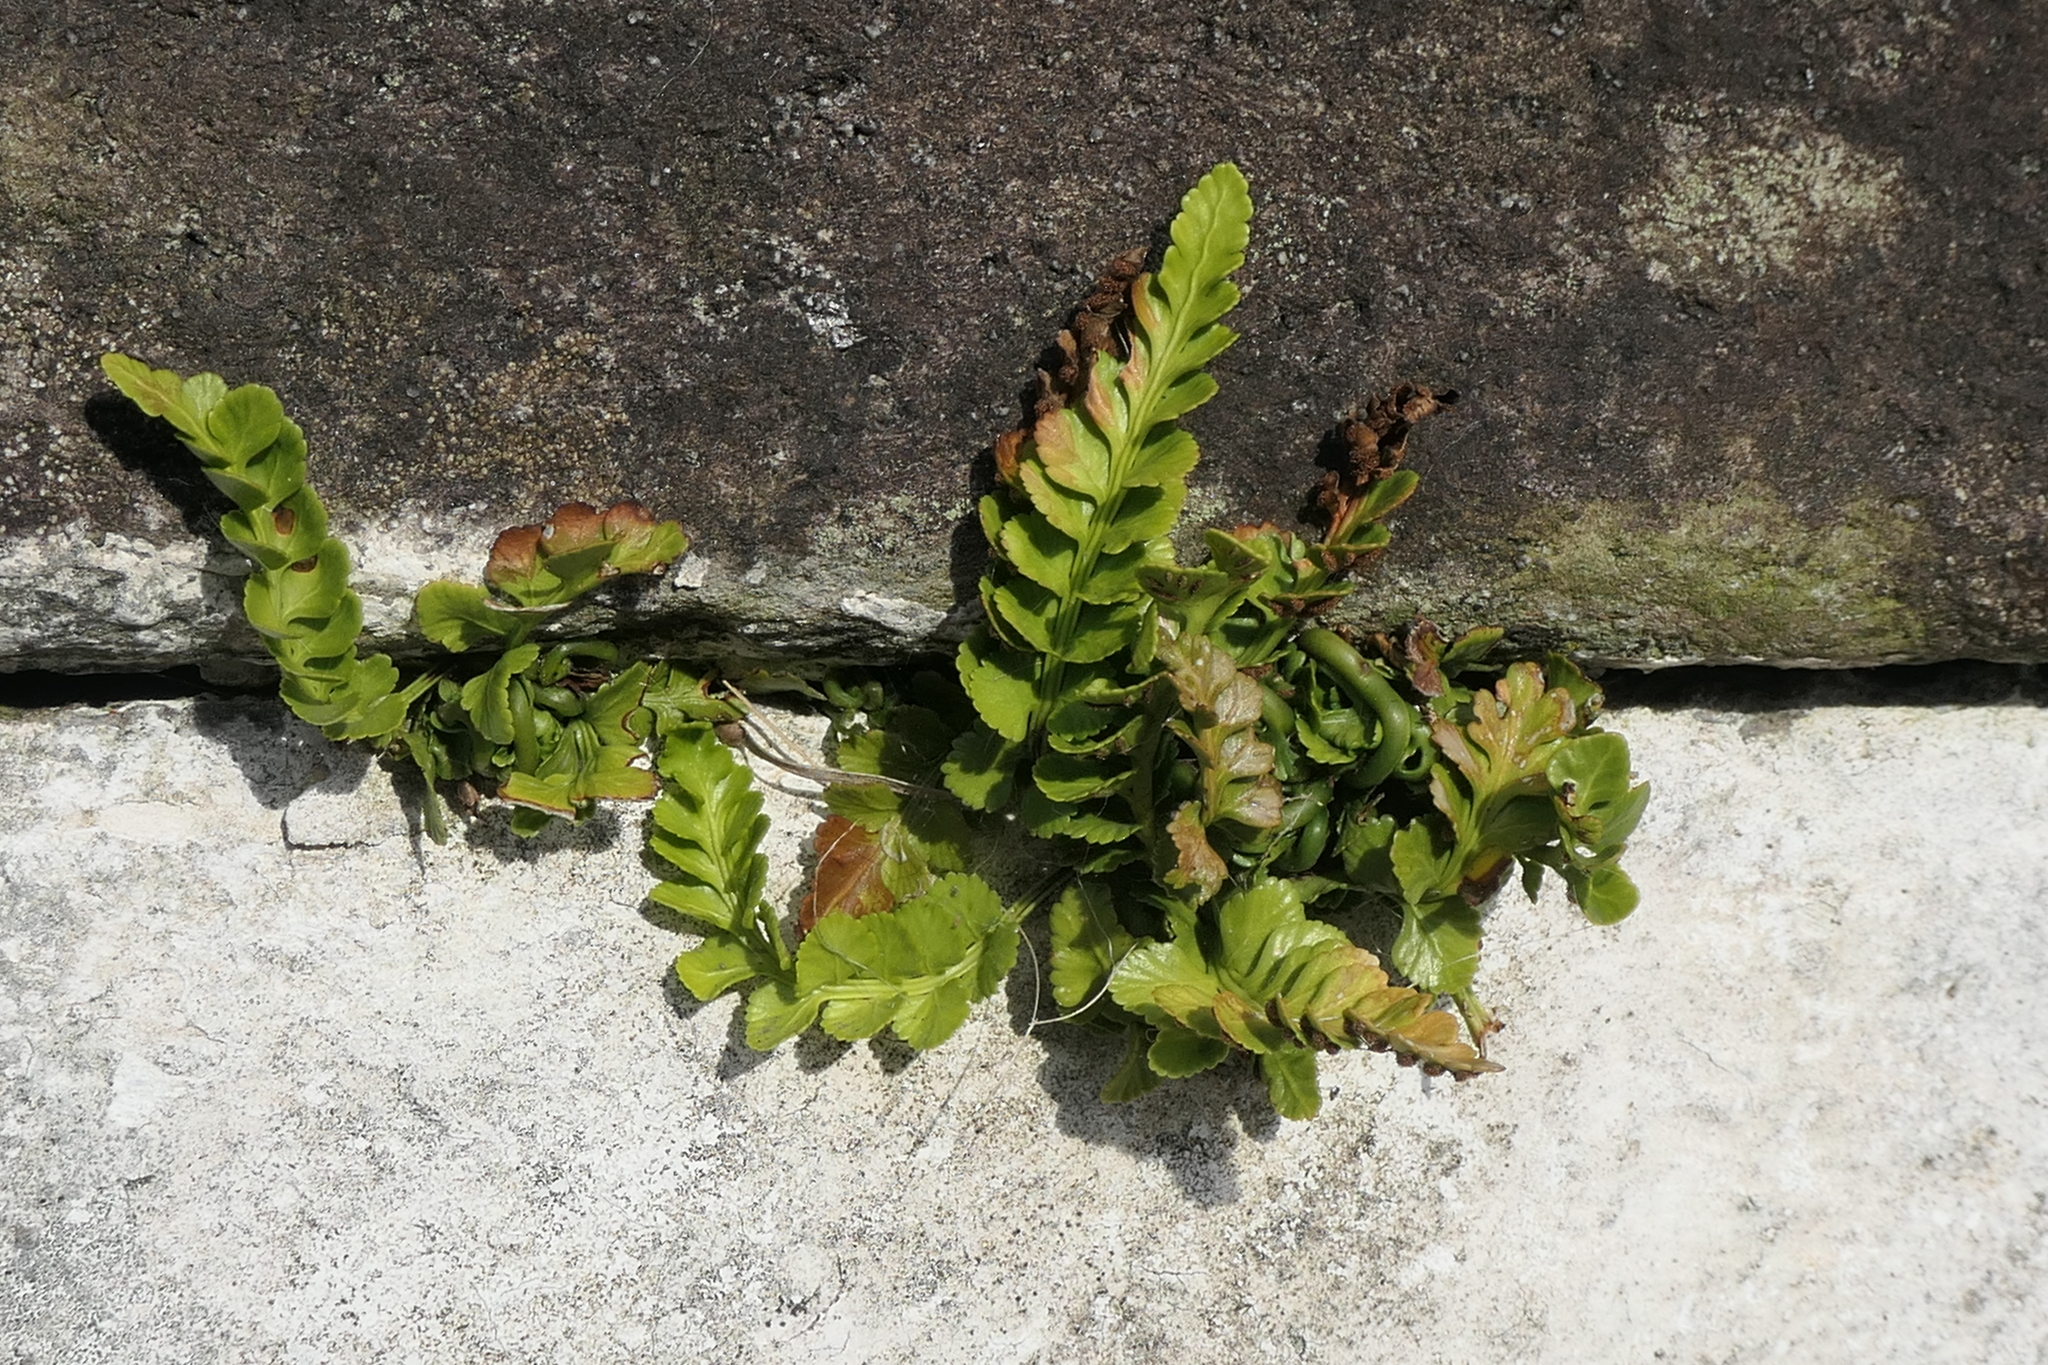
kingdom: Plantae
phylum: Tracheophyta
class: Polypodiopsida
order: Polypodiales
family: Aspleniaceae
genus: Asplenium
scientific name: Asplenium marinum
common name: Sea spleenwort
